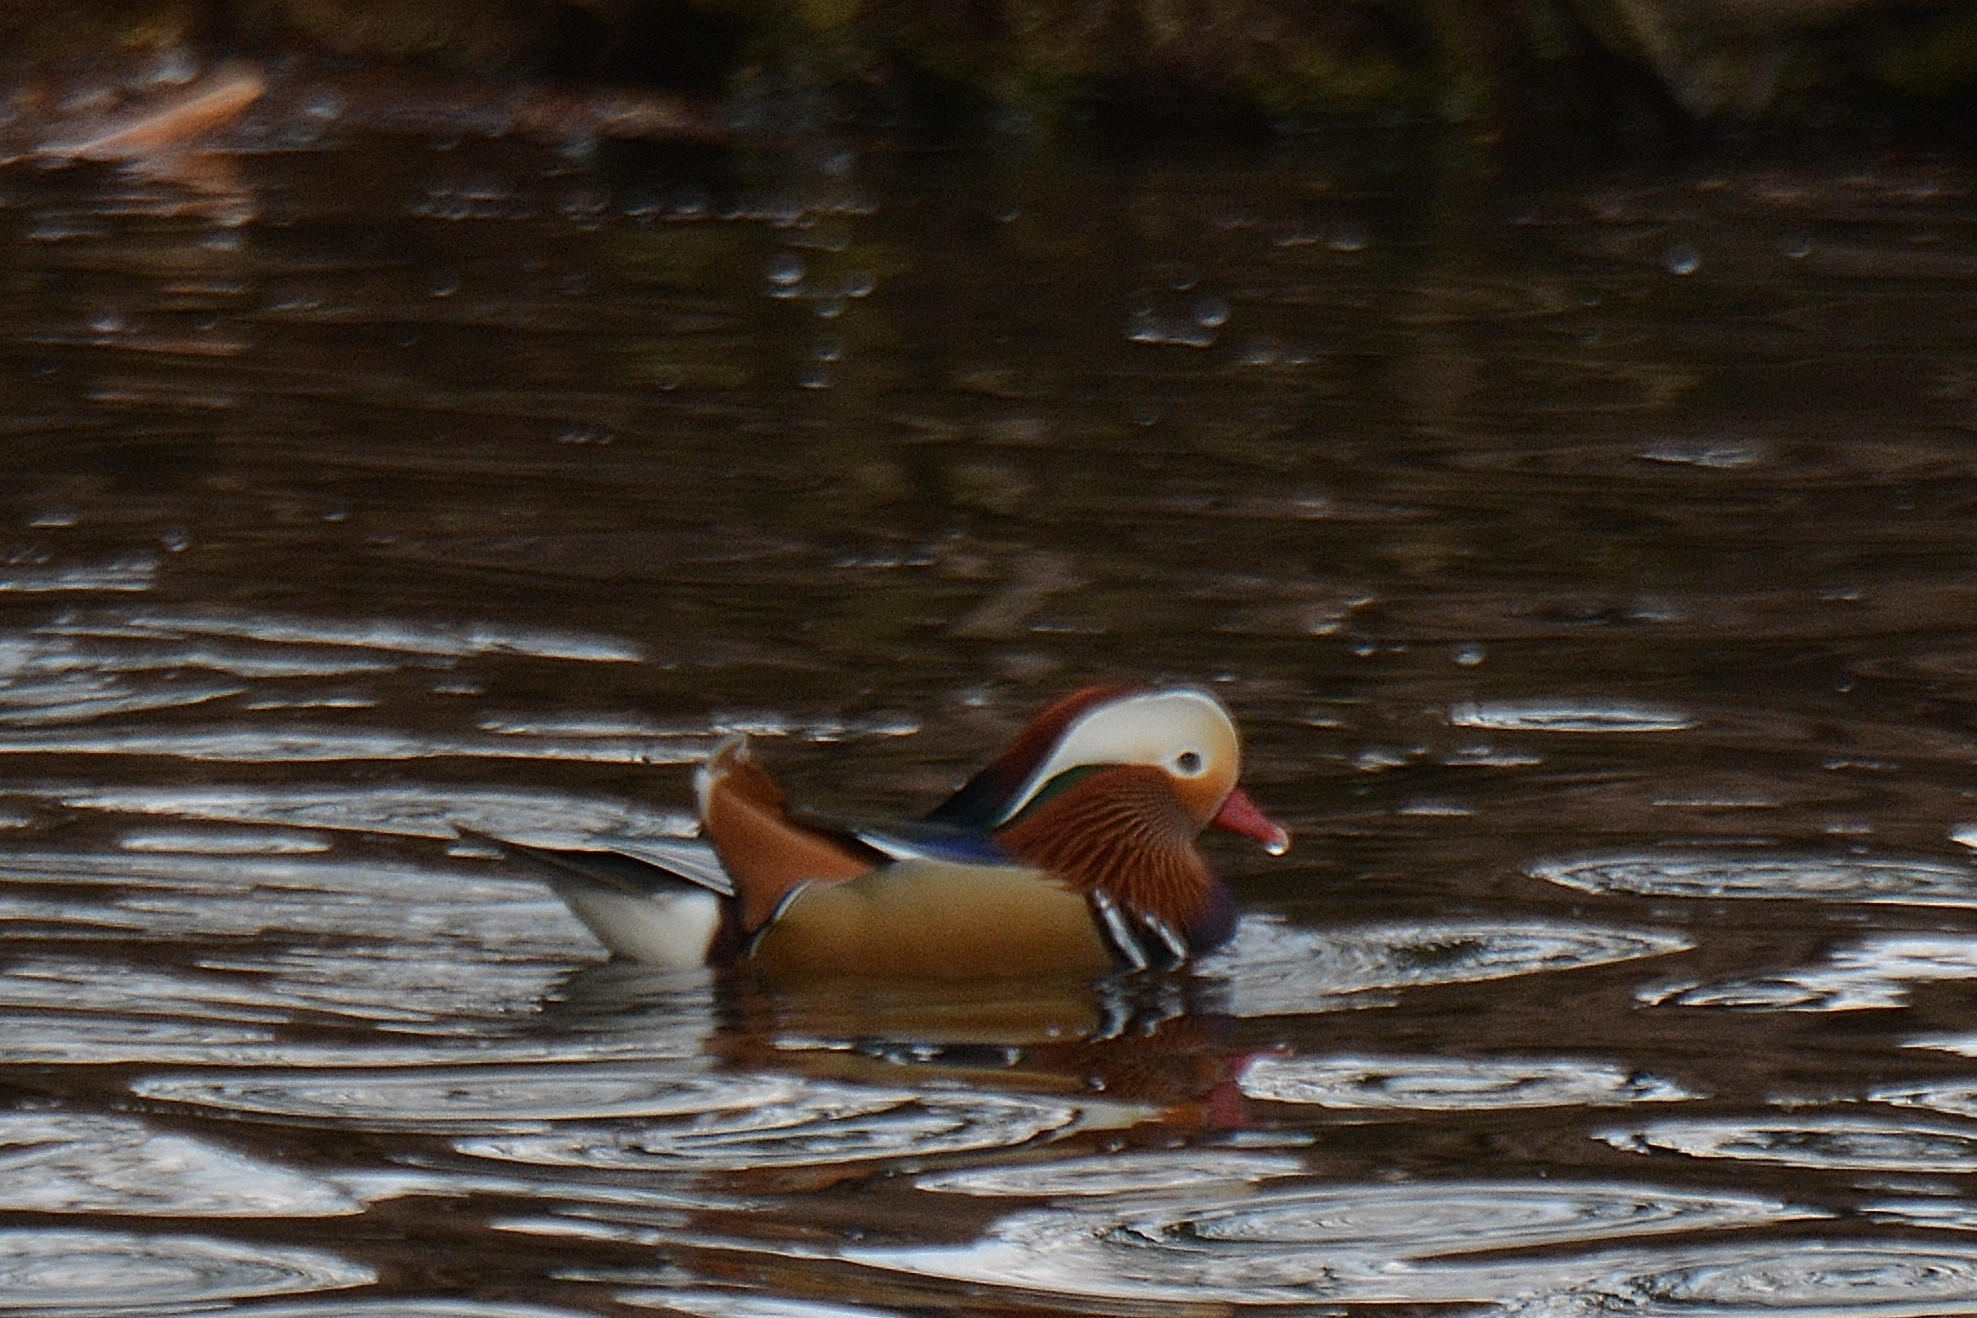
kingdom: Animalia
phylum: Chordata
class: Aves
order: Anseriformes
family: Anatidae
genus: Aix
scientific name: Aix galericulata
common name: Mandarin duck
